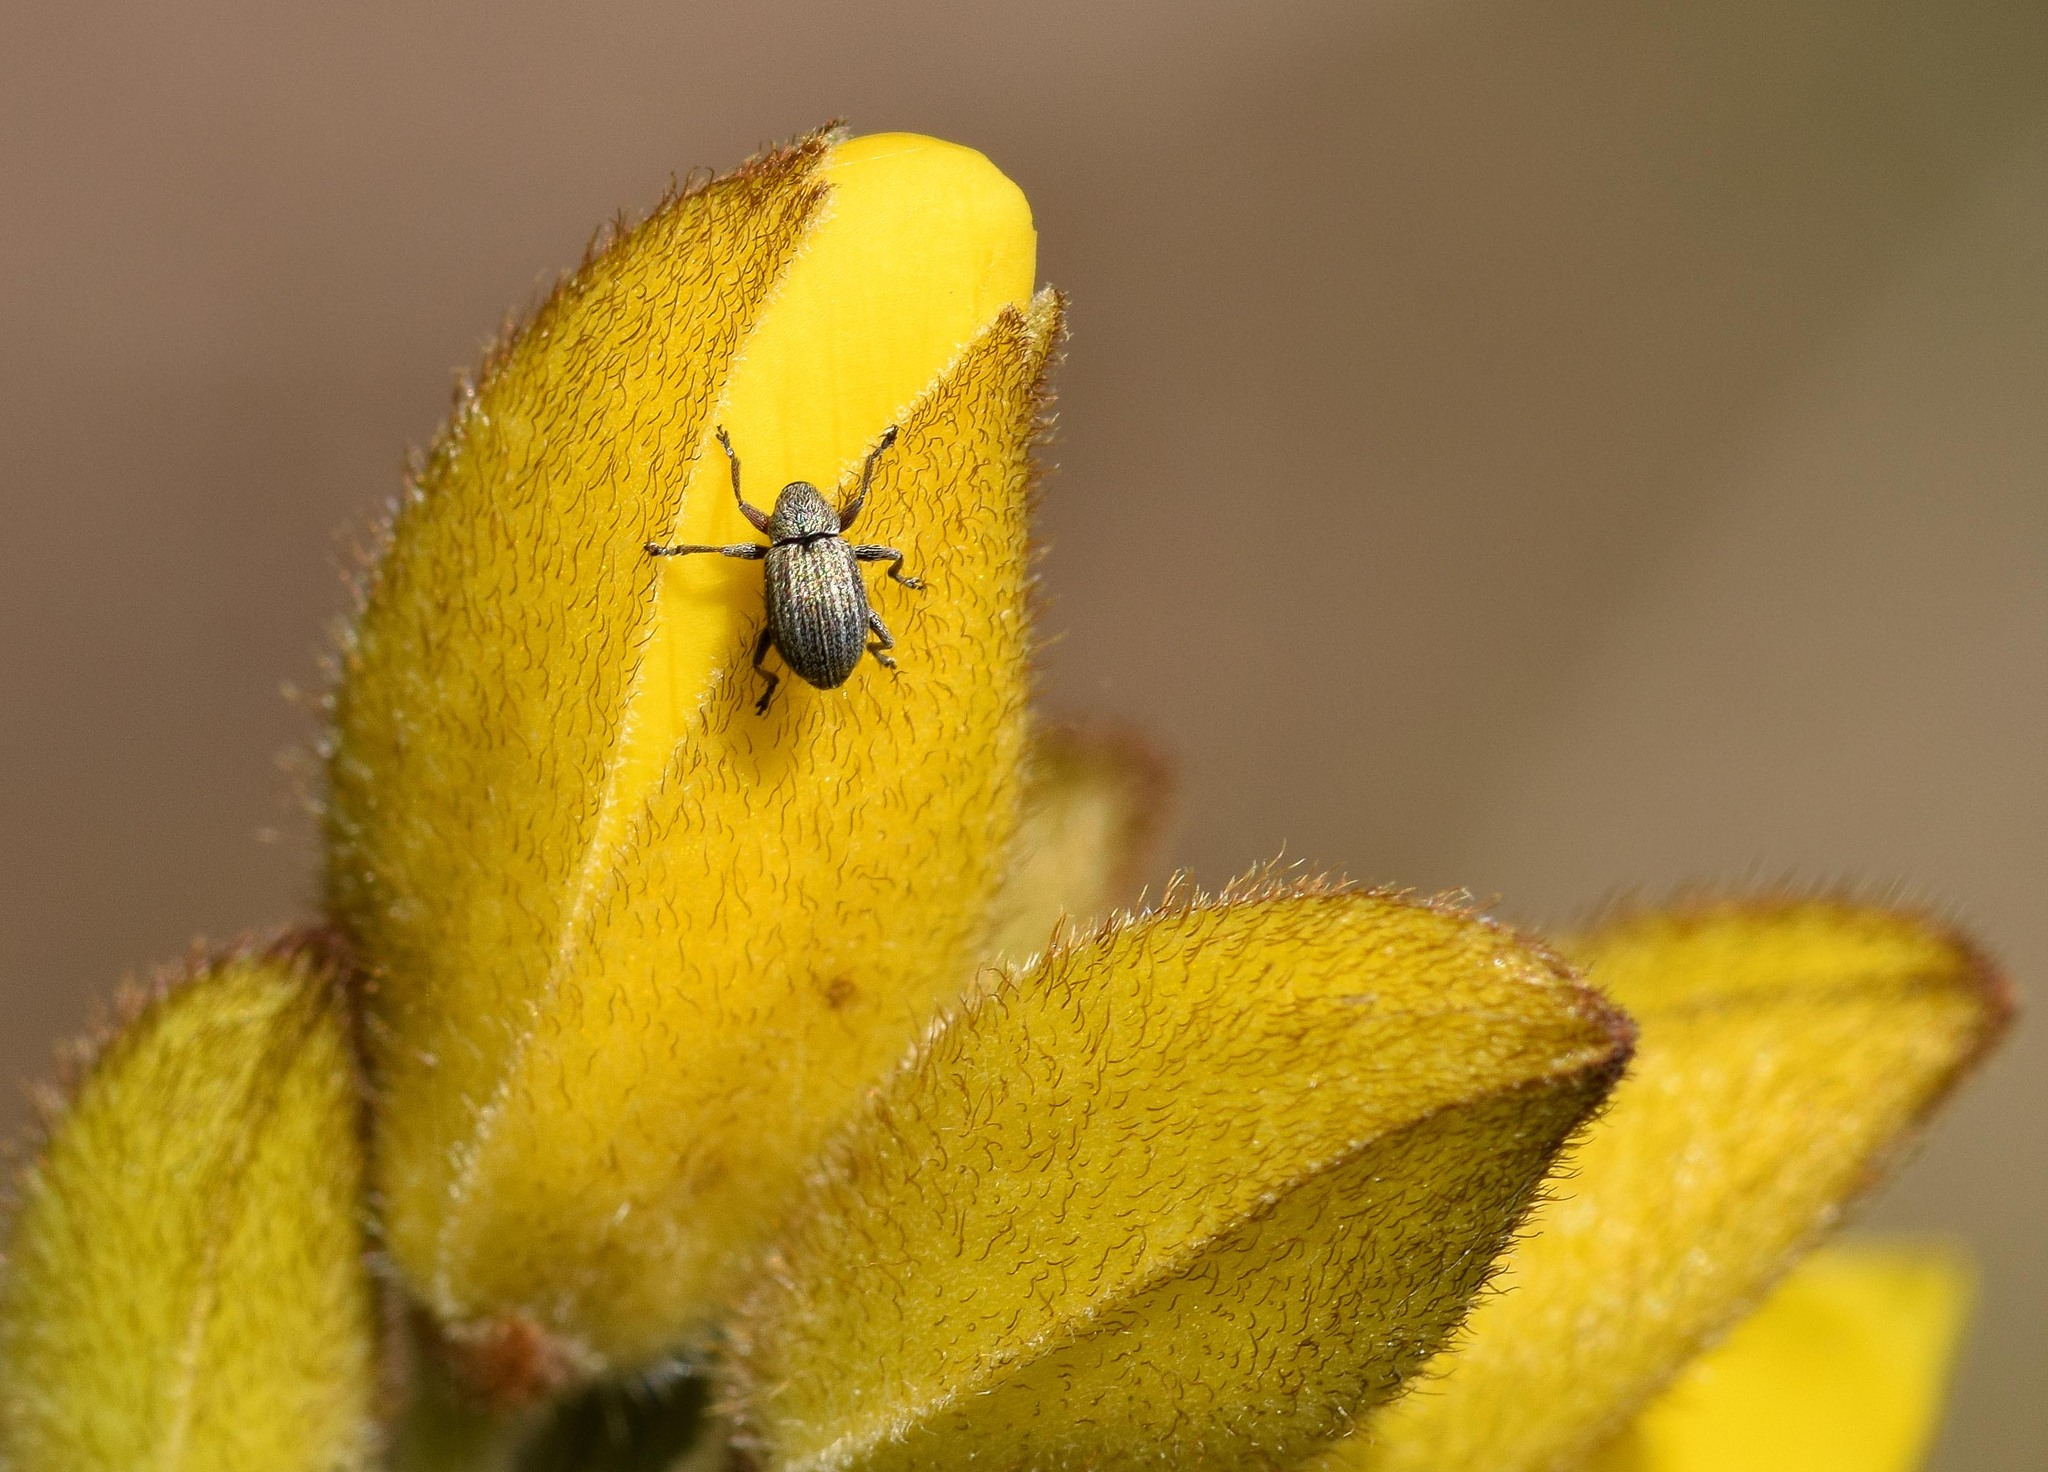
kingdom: Animalia
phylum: Arthropoda
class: Insecta
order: Coleoptera
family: Brentidae
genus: Exapion
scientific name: Exapion ulicis
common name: Gorse seed weevil
